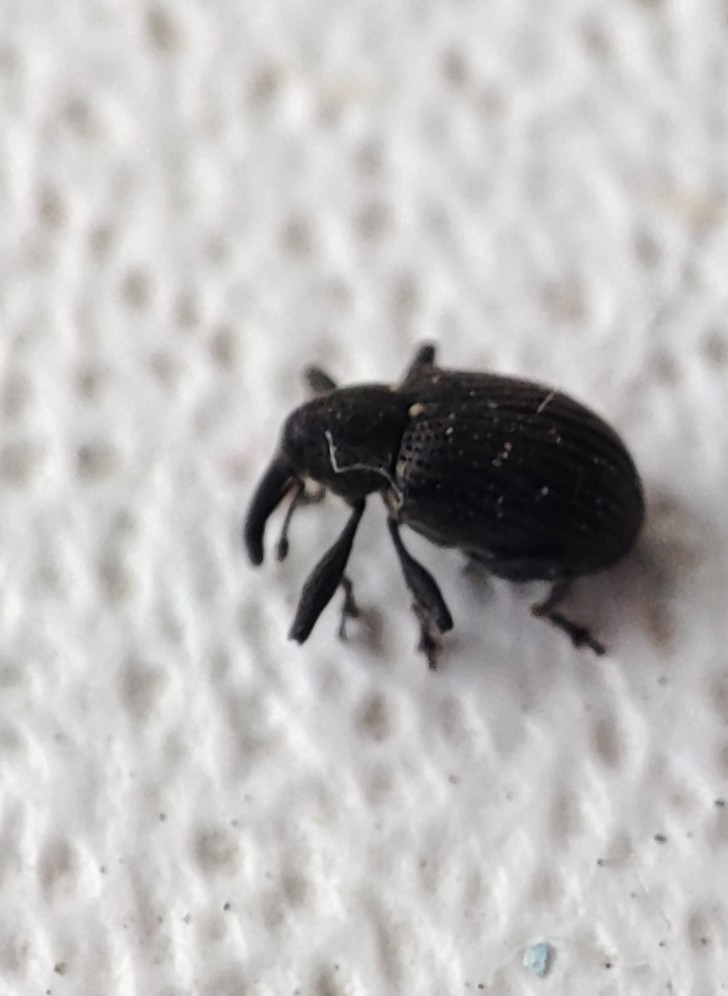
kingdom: Animalia
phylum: Arthropoda
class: Insecta
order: Coleoptera
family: Curculionidae
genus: Anthonomus
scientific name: Anthonomus rubi
